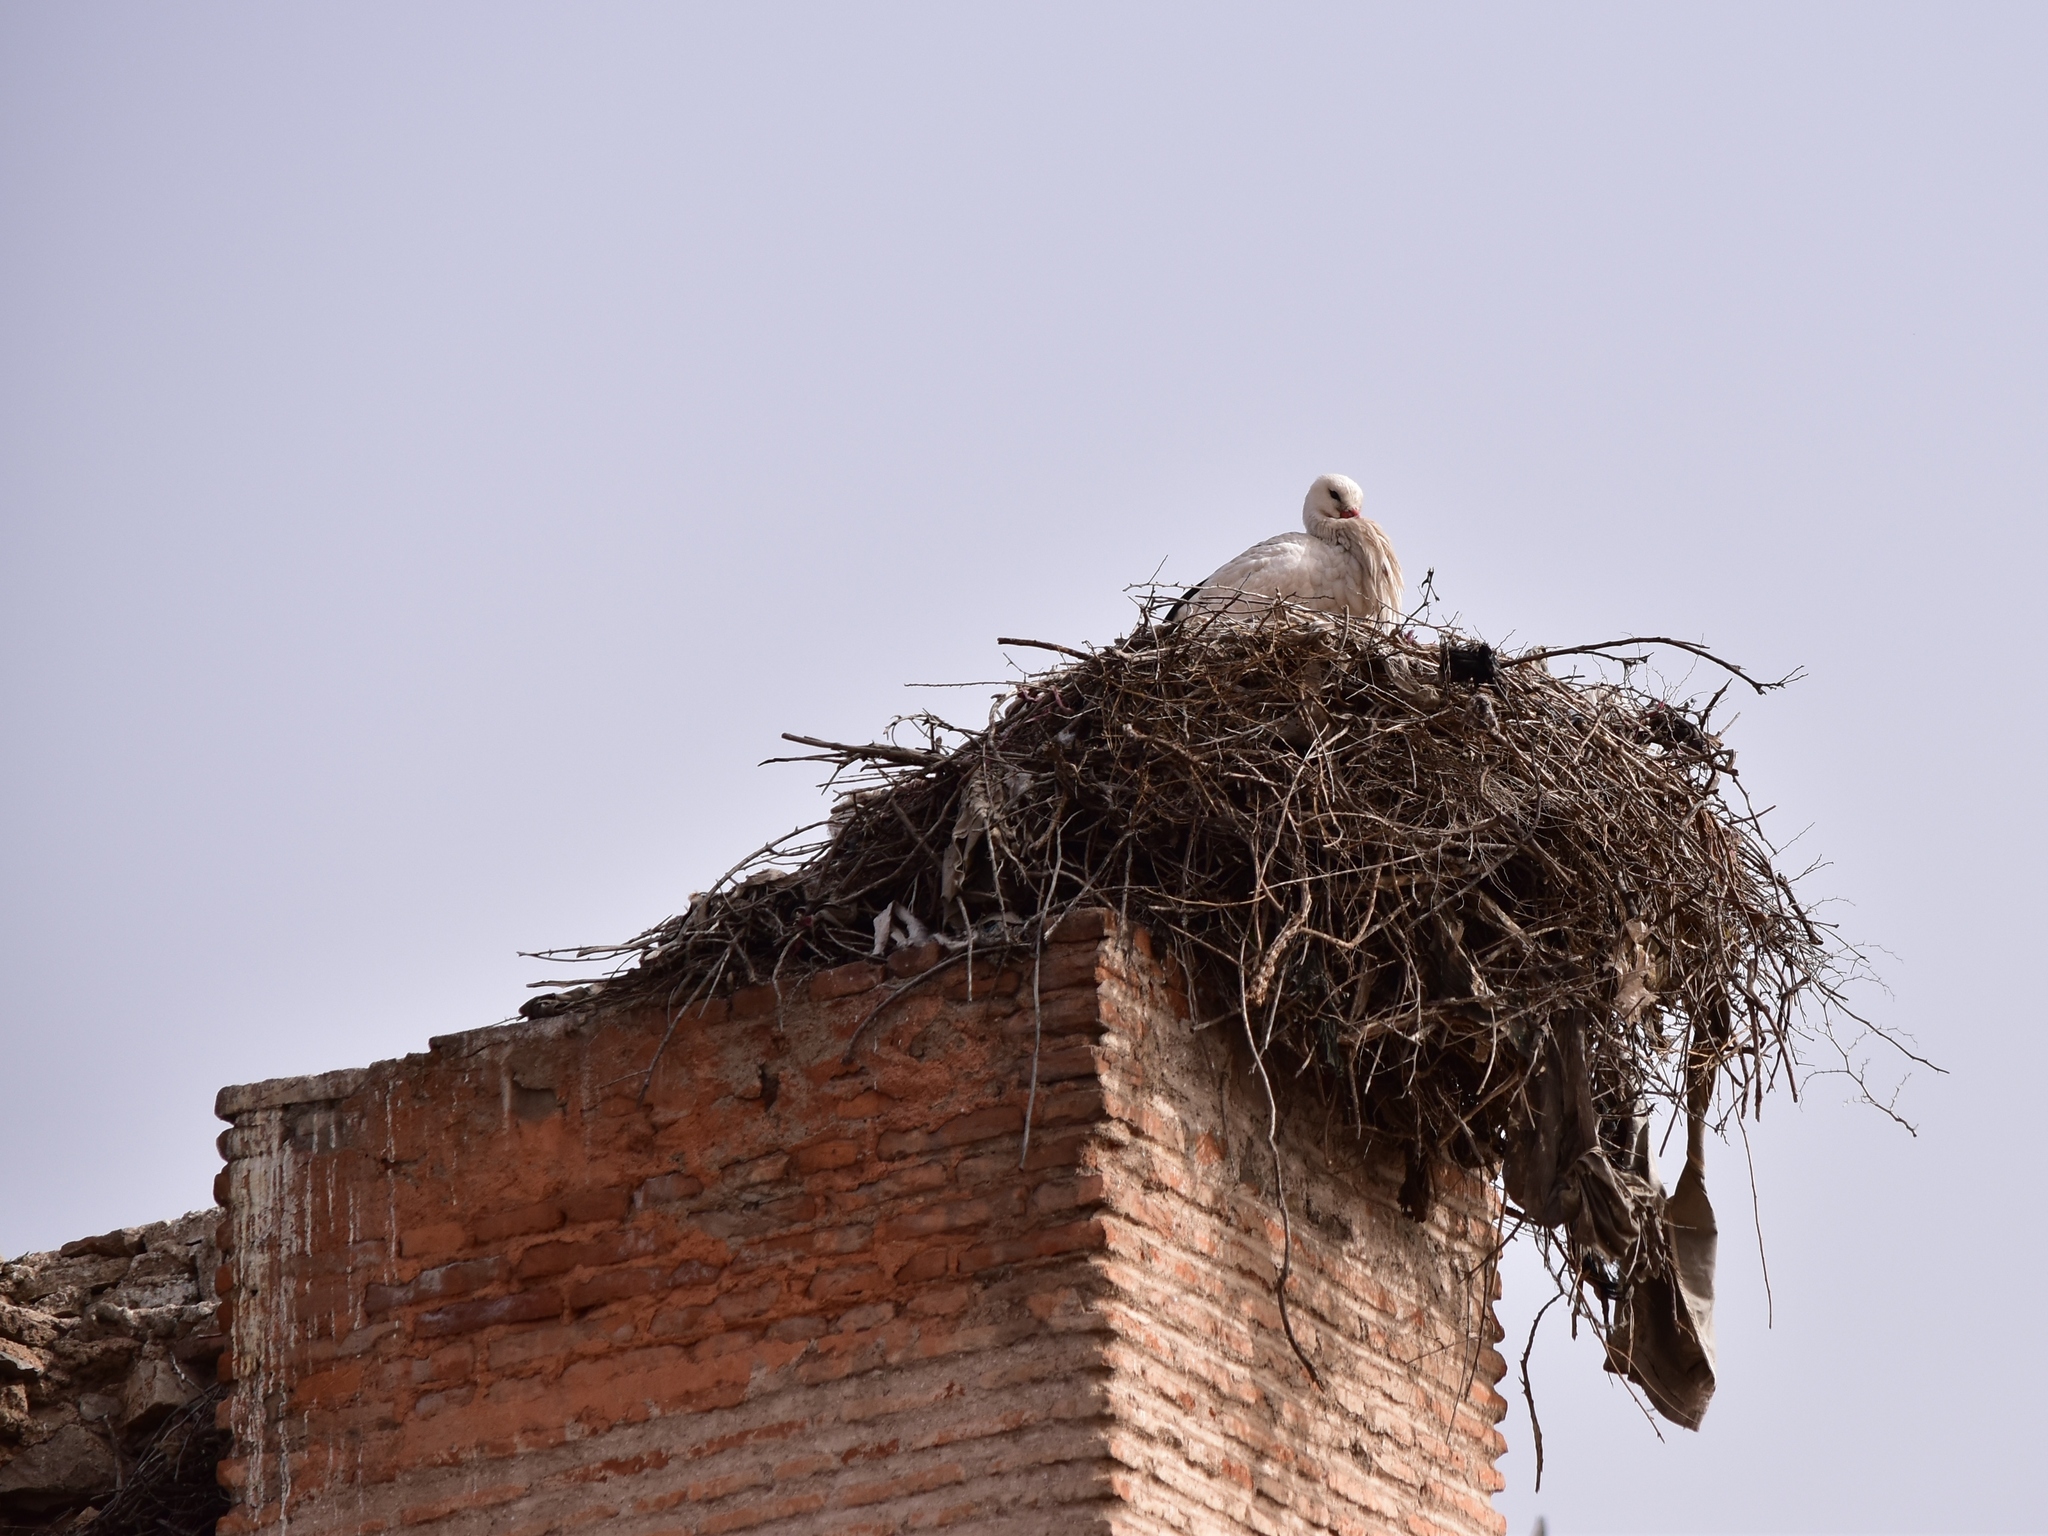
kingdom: Animalia
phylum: Chordata
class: Aves
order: Ciconiiformes
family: Ciconiidae
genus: Ciconia
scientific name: Ciconia ciconia
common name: White stork
